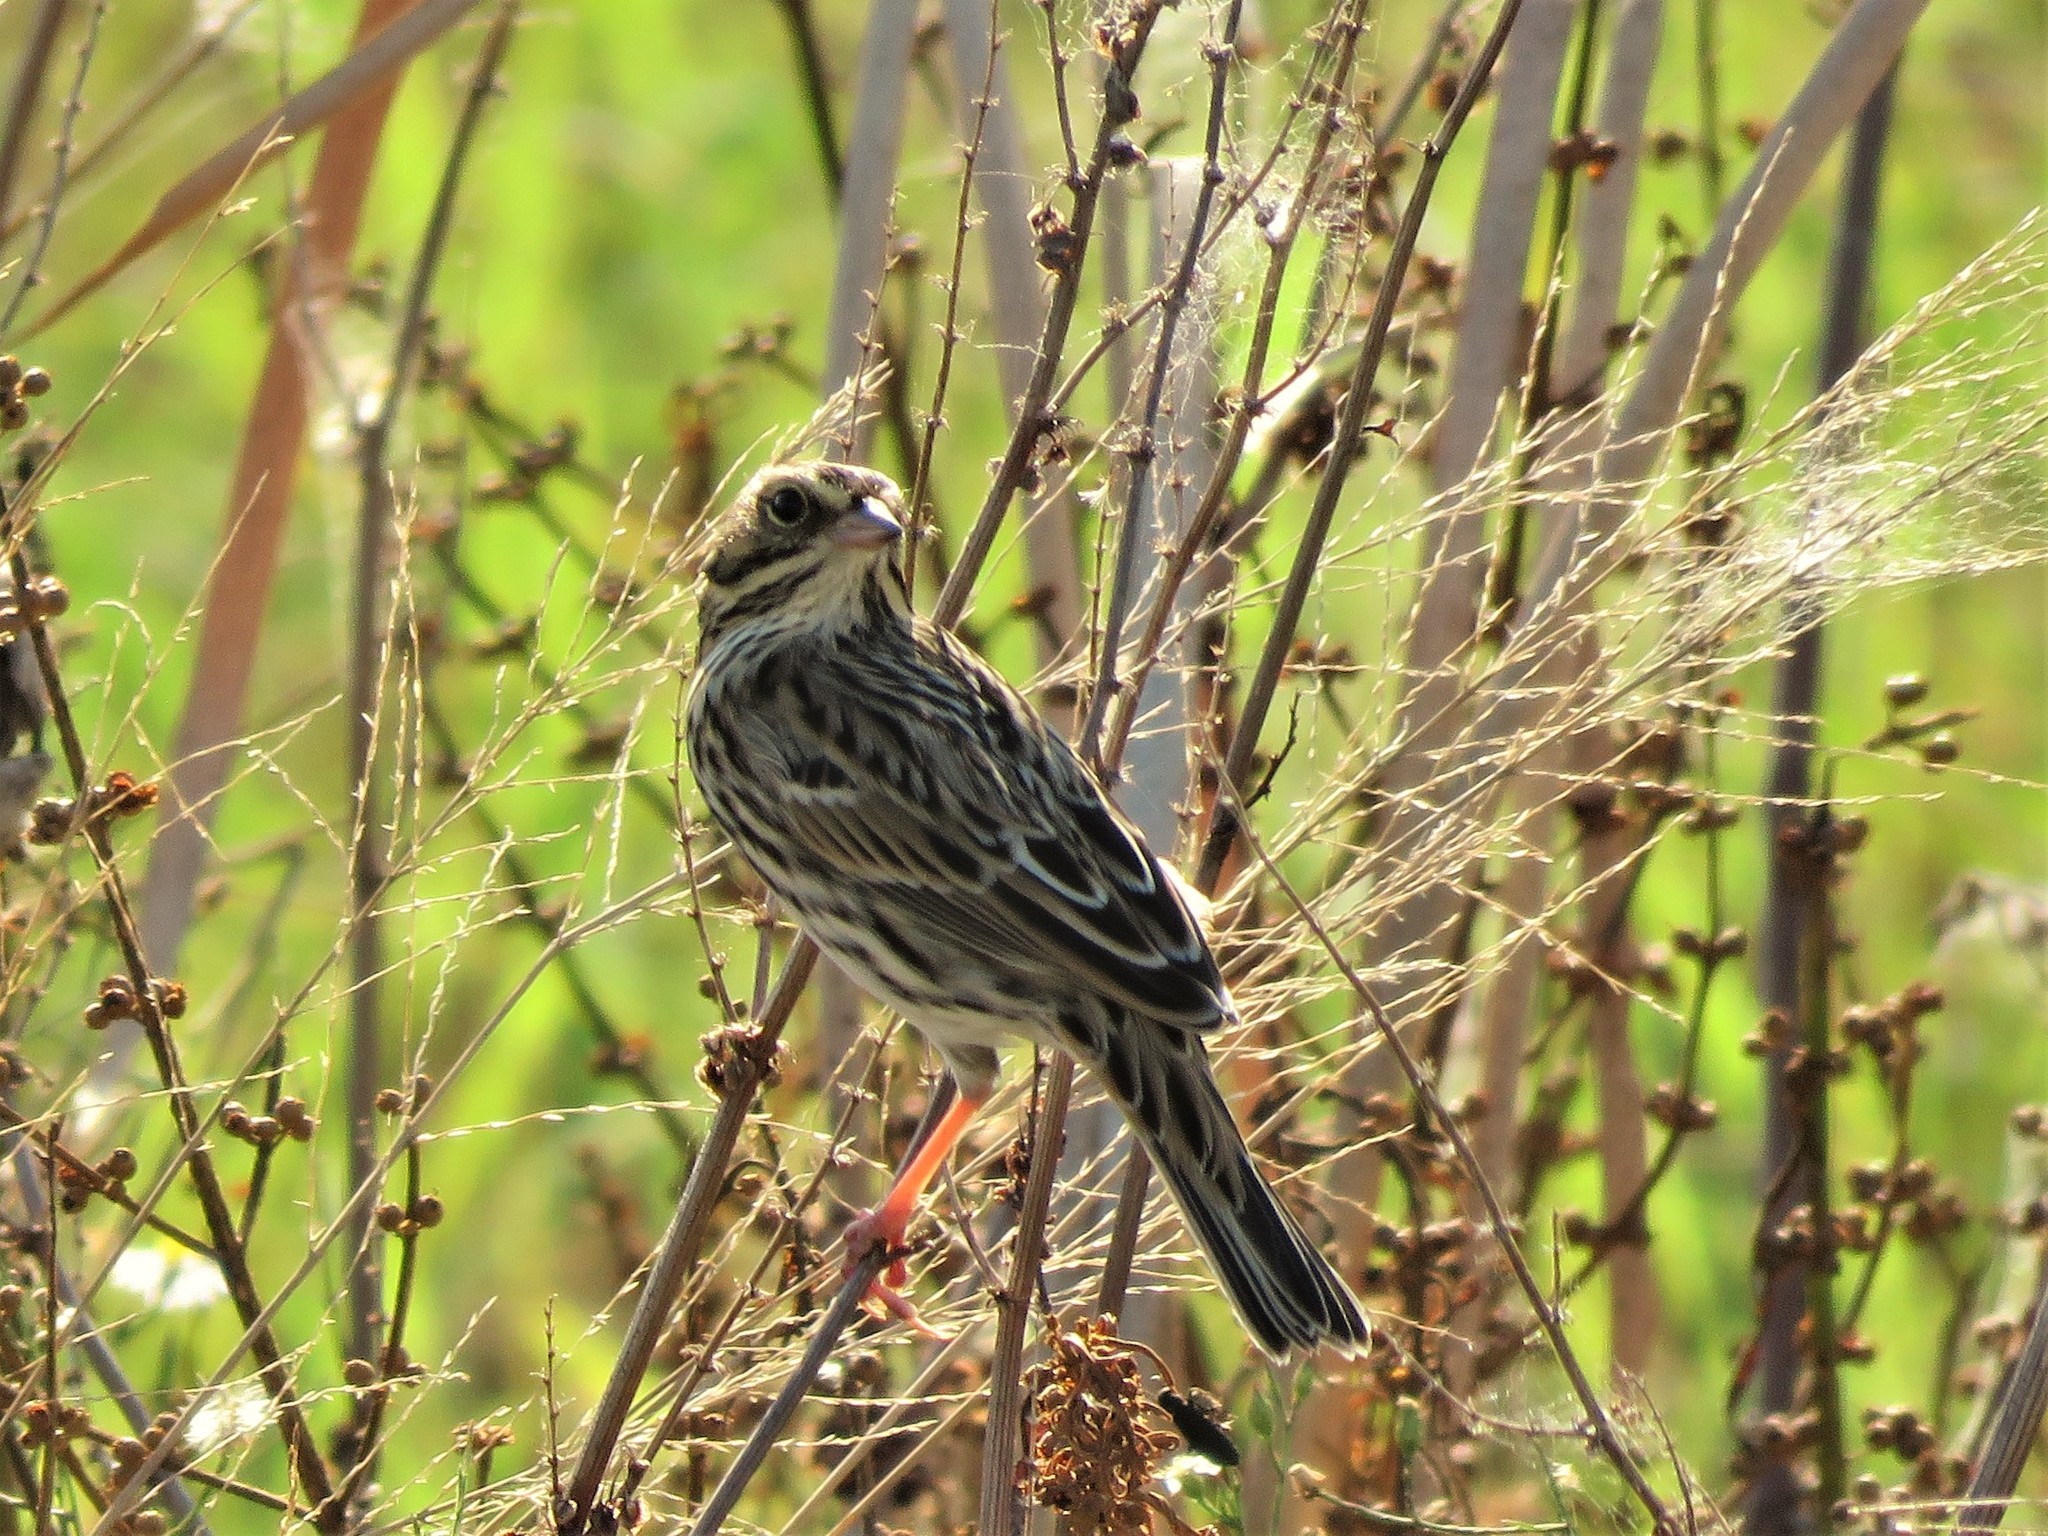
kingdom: Animalia
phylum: Chordata
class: Aves
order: Passeriformes
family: Passerellidae
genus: Passerculus
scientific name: Passerculus sandwichensis
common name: Savannah sparrow
